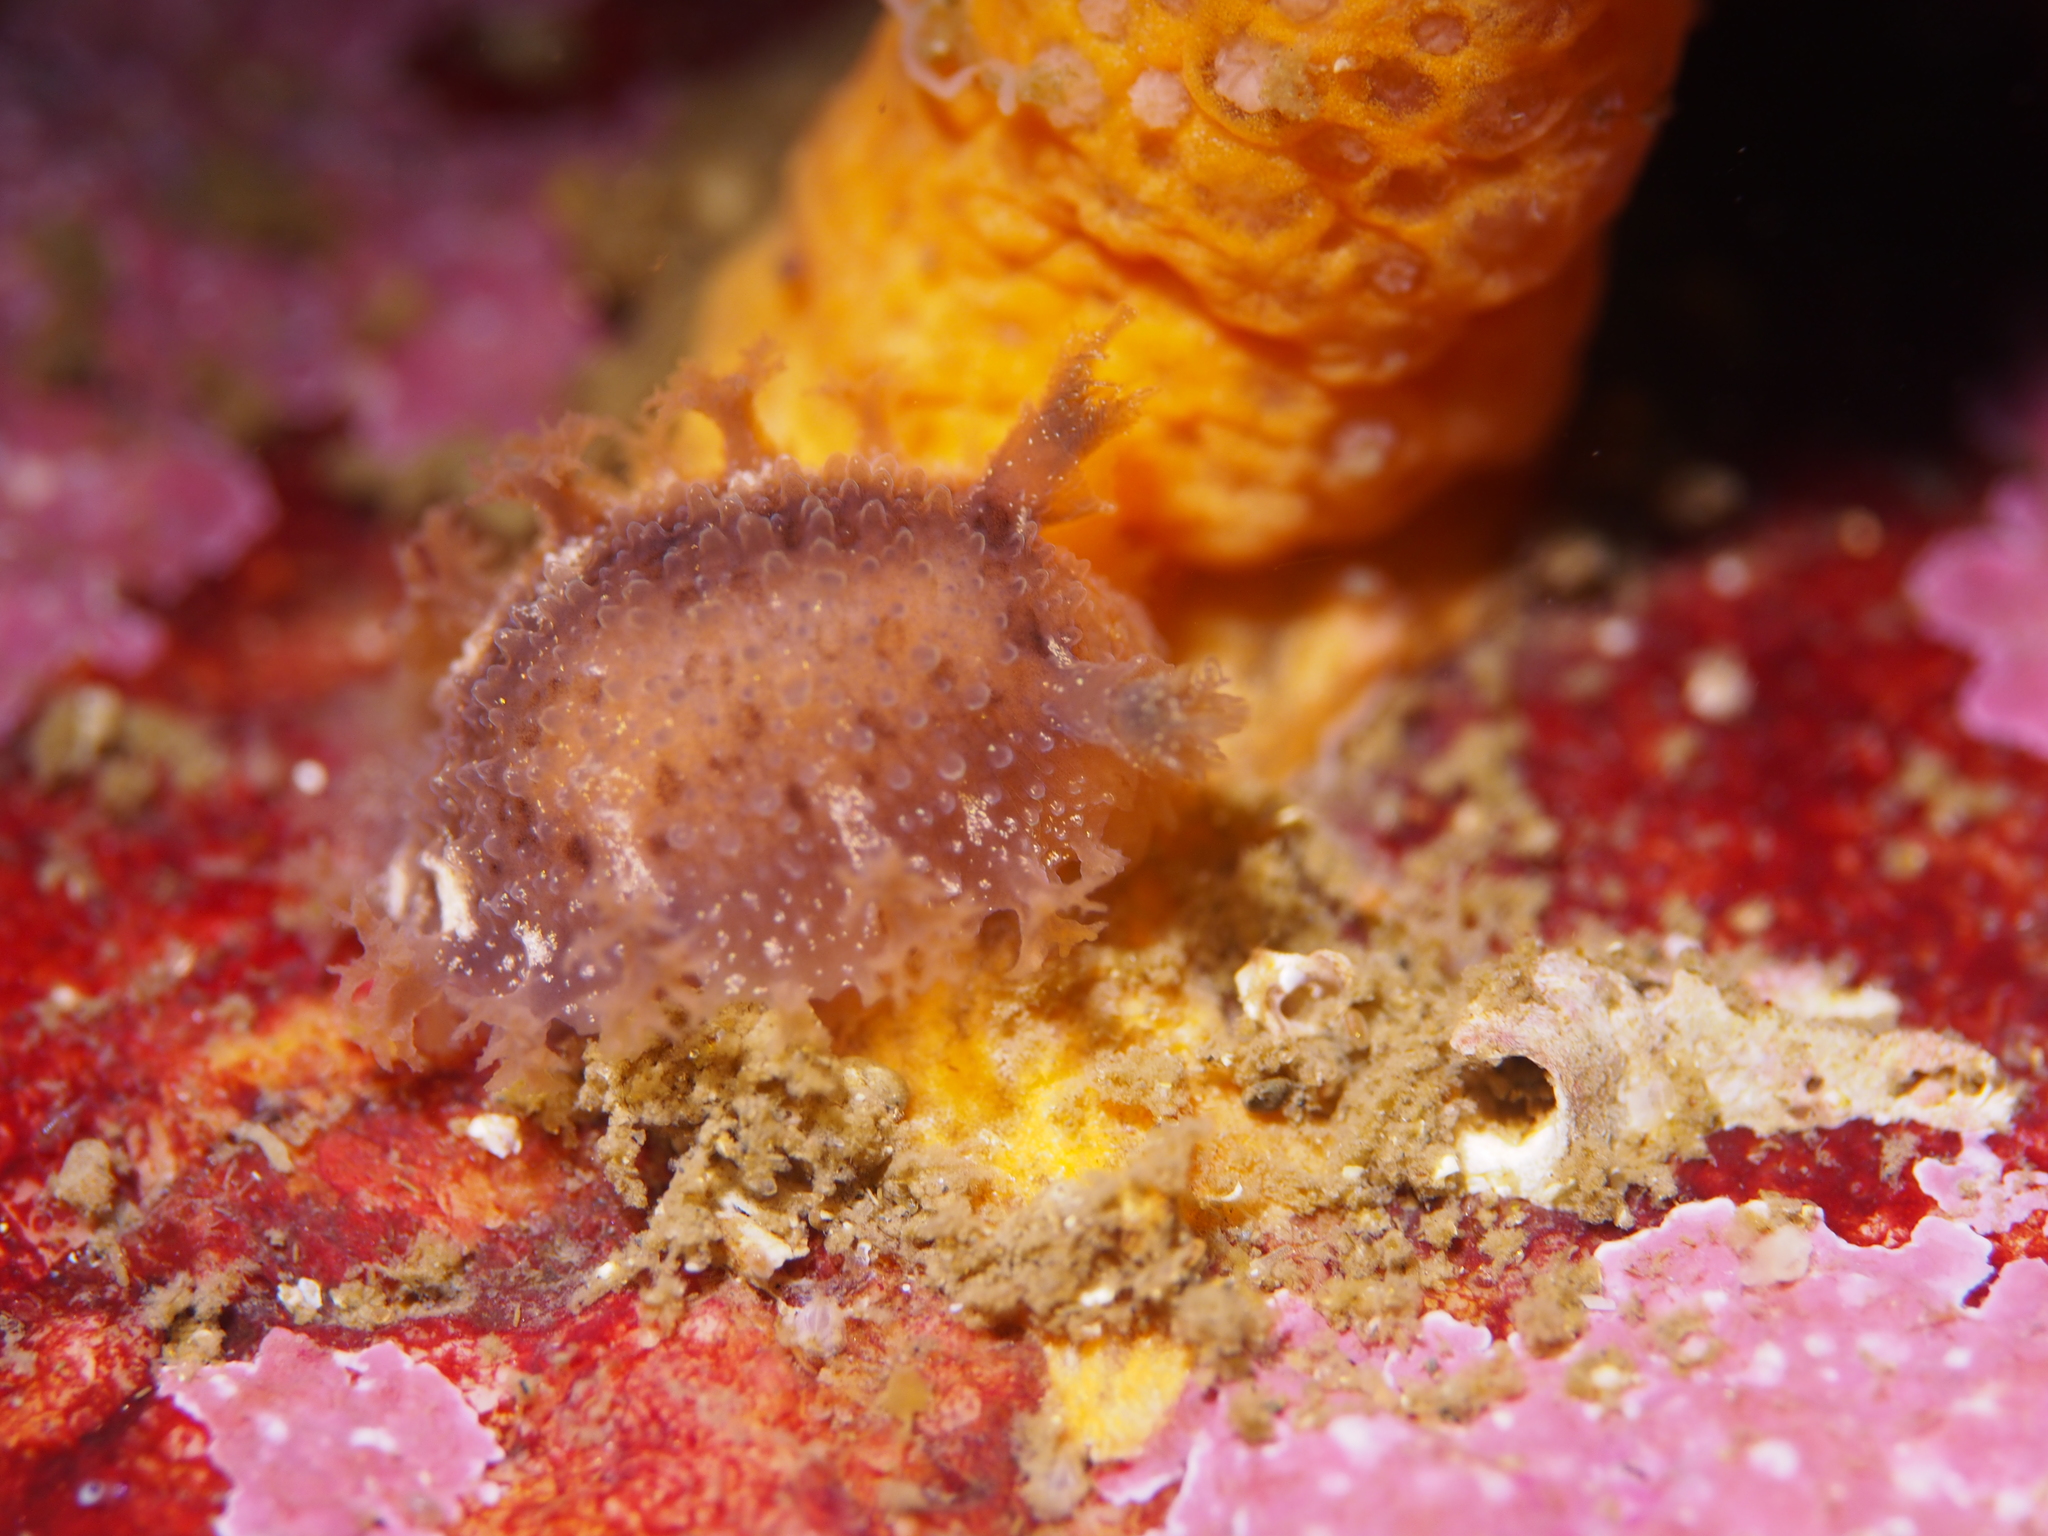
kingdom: Animalia
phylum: Mollusca
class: Gastropoda
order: Nudibranchia
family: Tritoniidae
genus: Tritonia
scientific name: Tritonia hombergii
